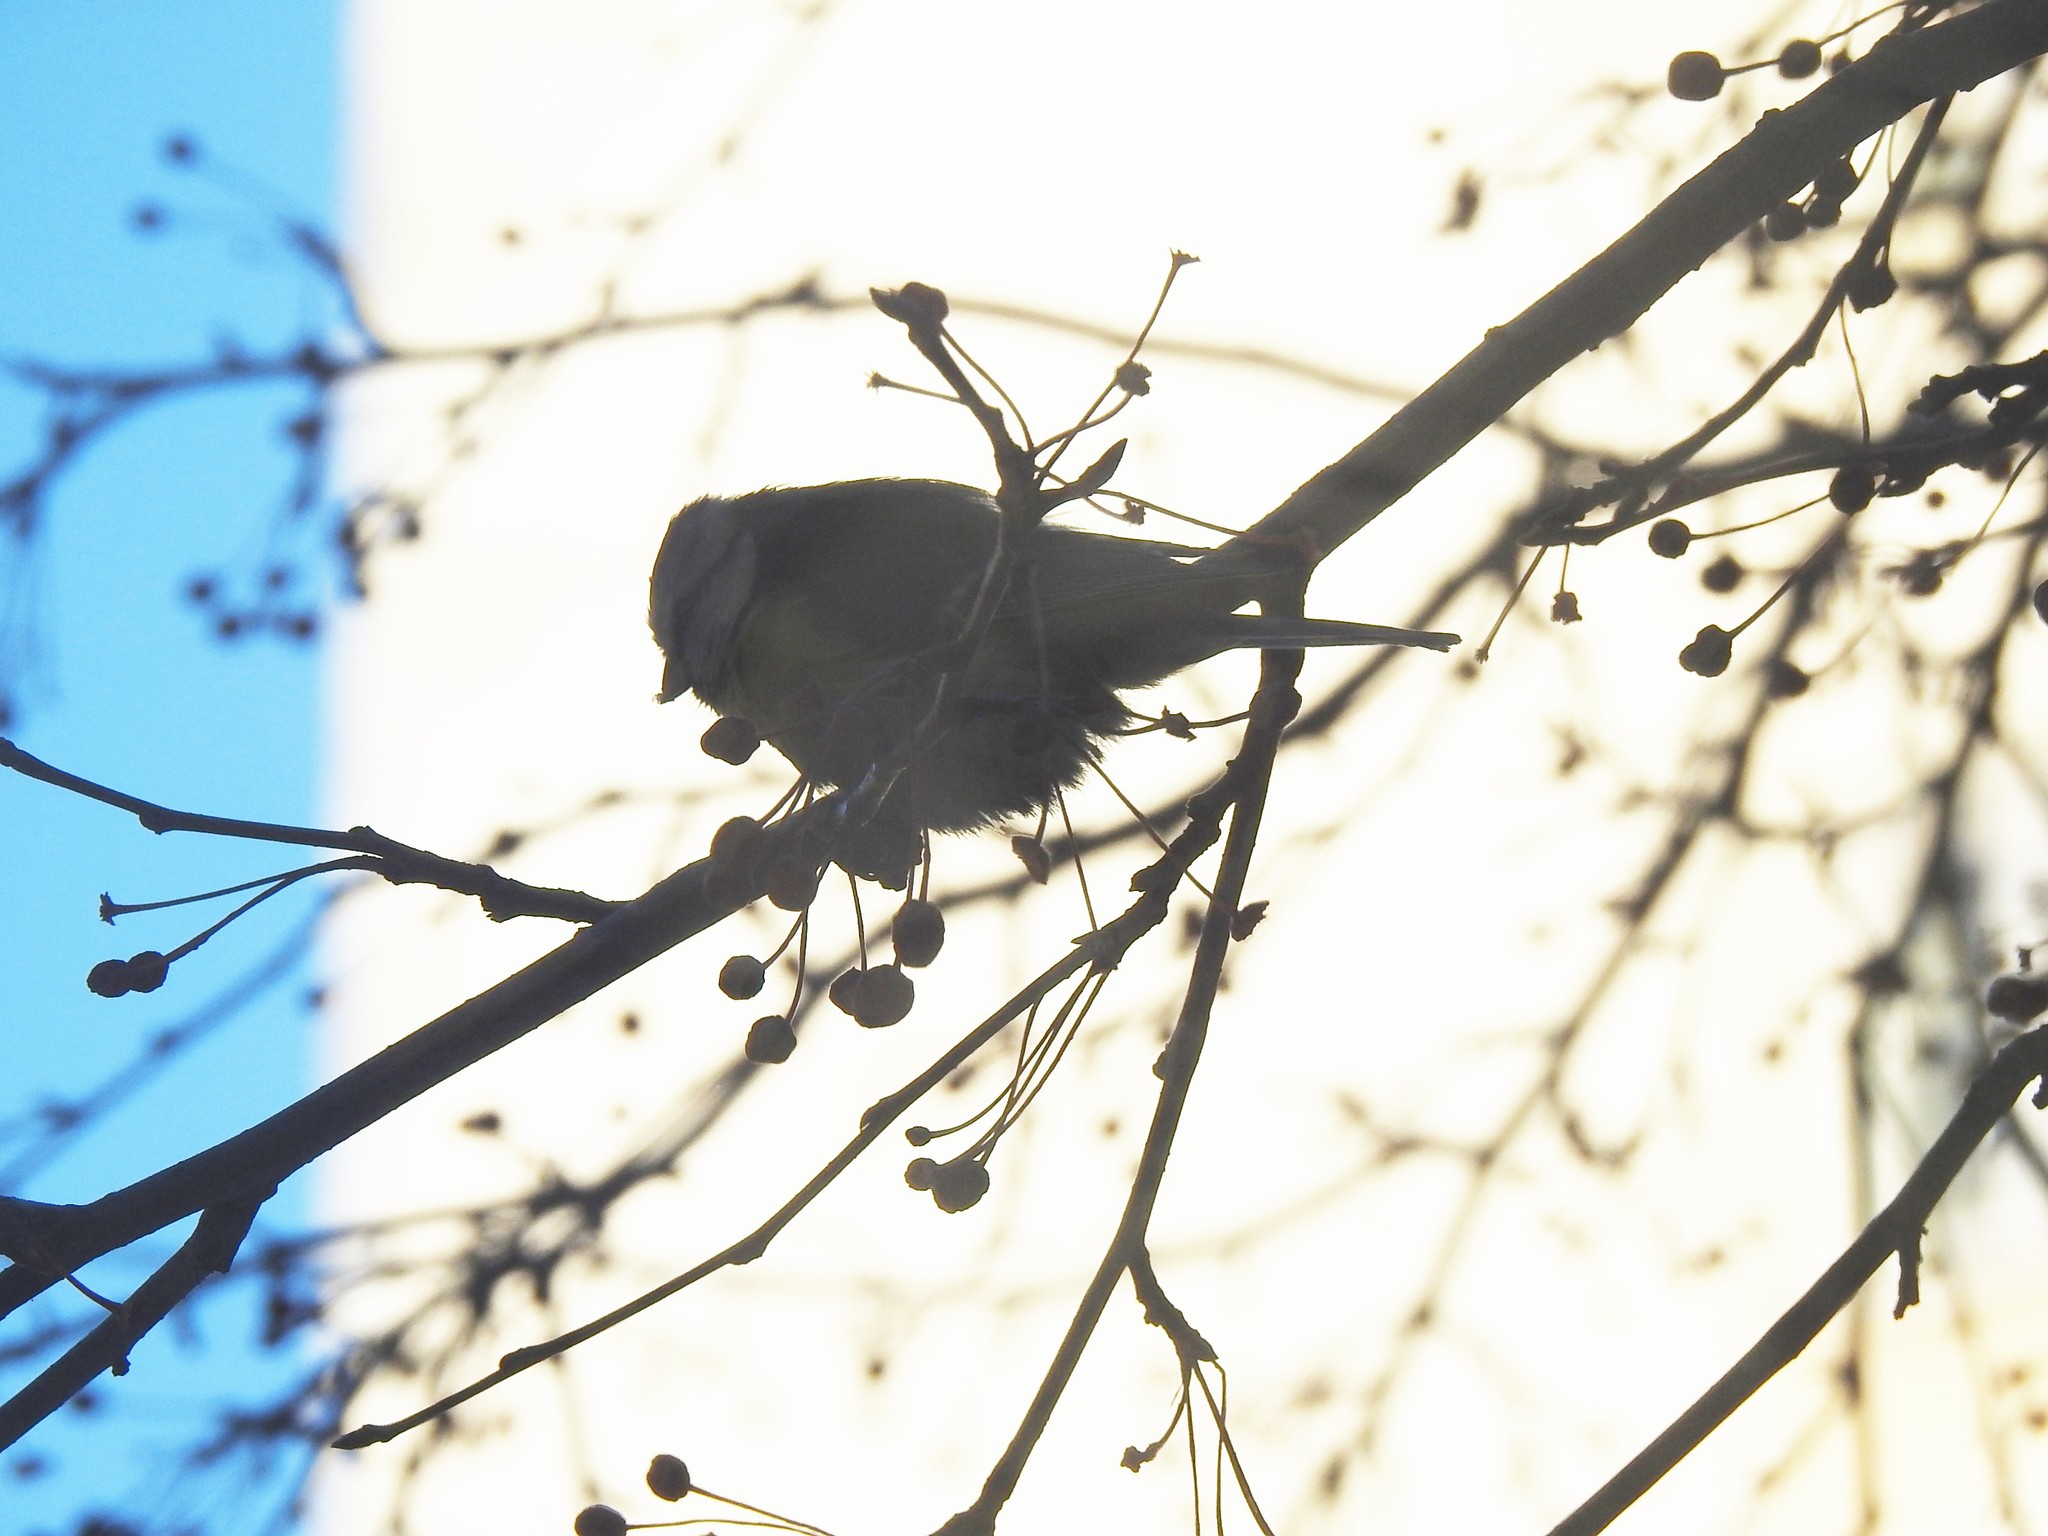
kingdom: Animalia
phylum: Chordata
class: Aves
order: Passeriformes
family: Paridae
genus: Cyanistes
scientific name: Cyanistes caeruleus
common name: Eurasian blue tit
